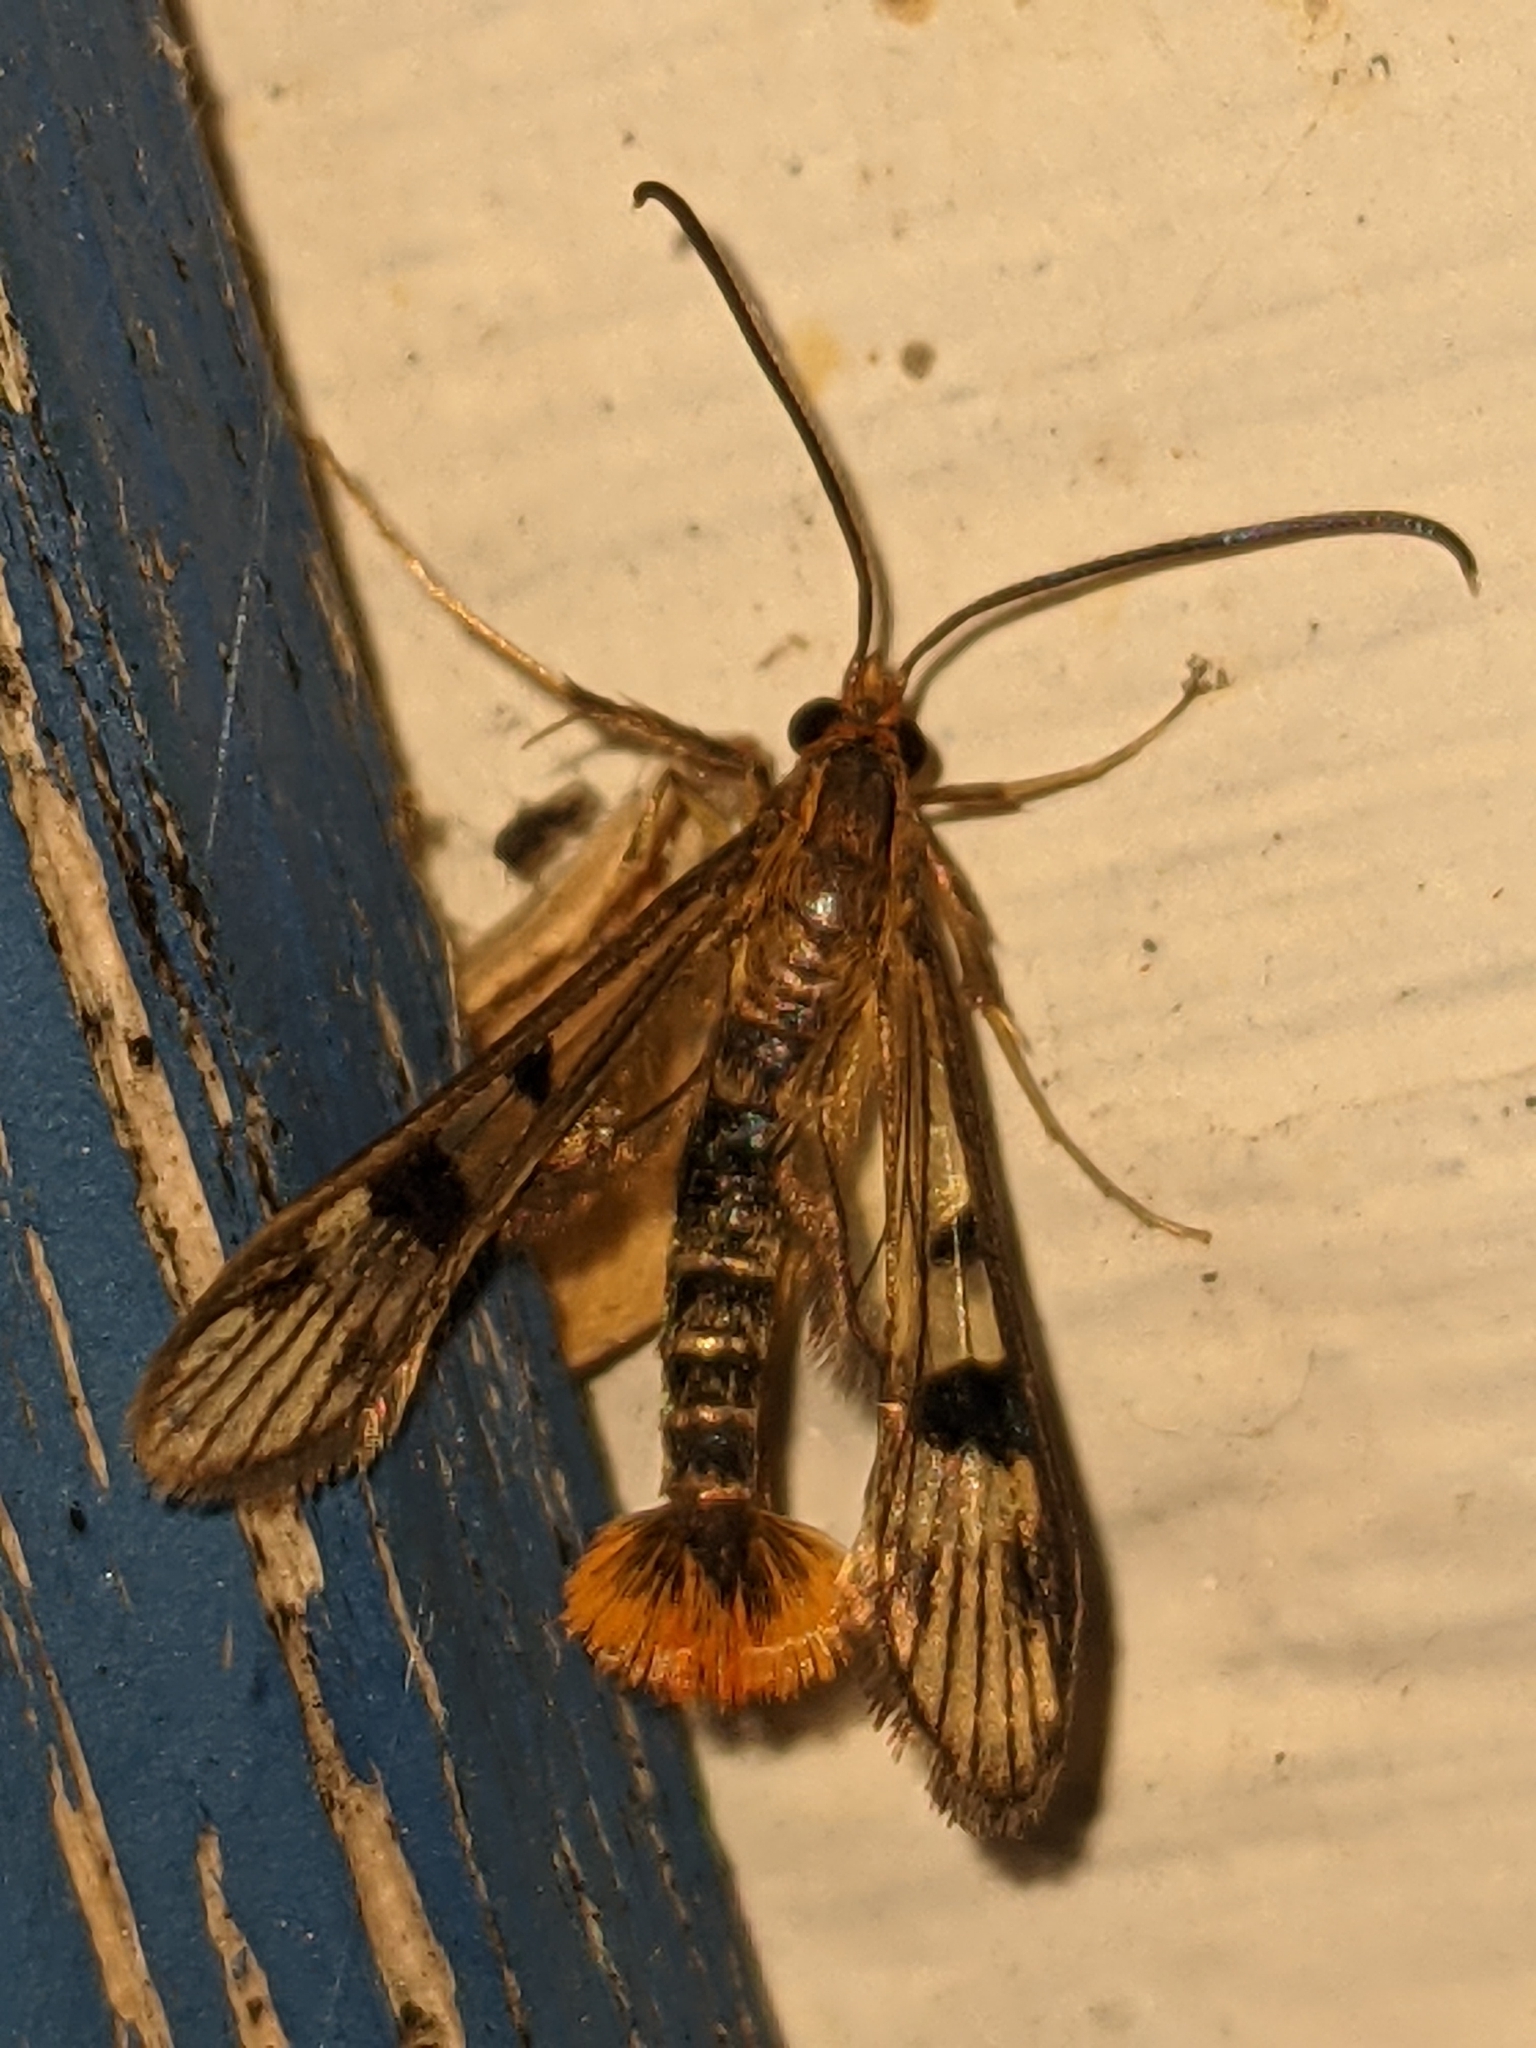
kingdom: Animalia
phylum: Arthropoda
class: Insecta
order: Lepidoptera
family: Sesiidae
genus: Synanthedon
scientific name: Synanthedon acerni
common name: Maple callus borer moth
